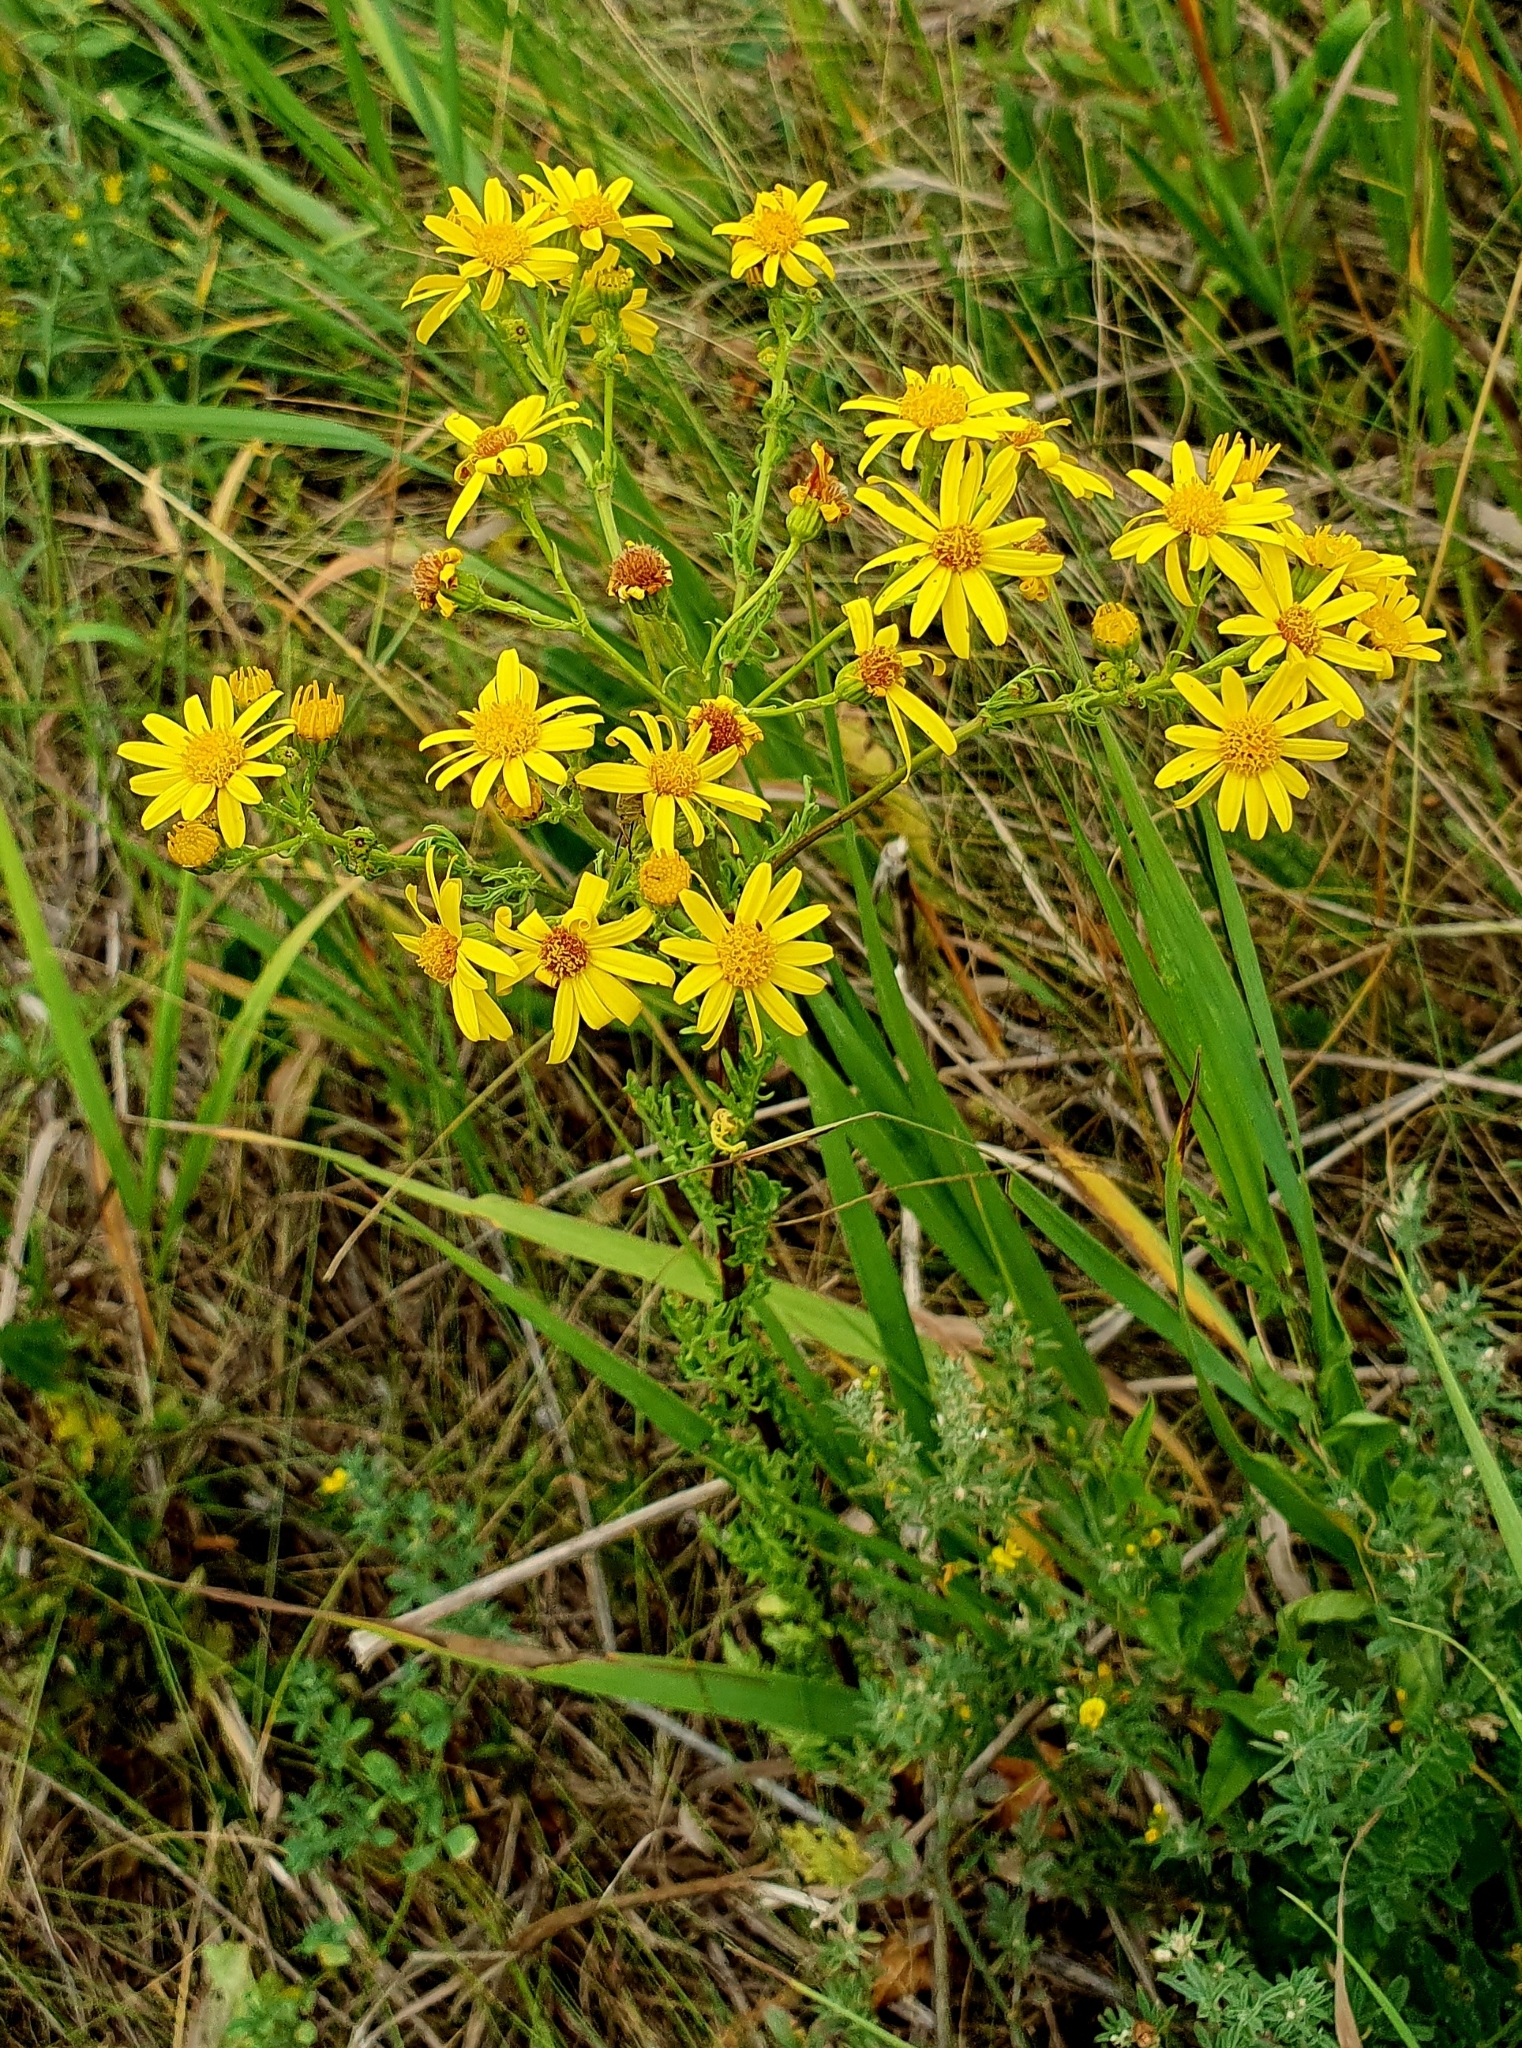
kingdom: Plantae
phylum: Tracheophyta
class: Magnoliopsida
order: Asterales
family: Asteraceae
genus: Jacobaea
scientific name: Jacobaea vulgaris
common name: Stinking willie
